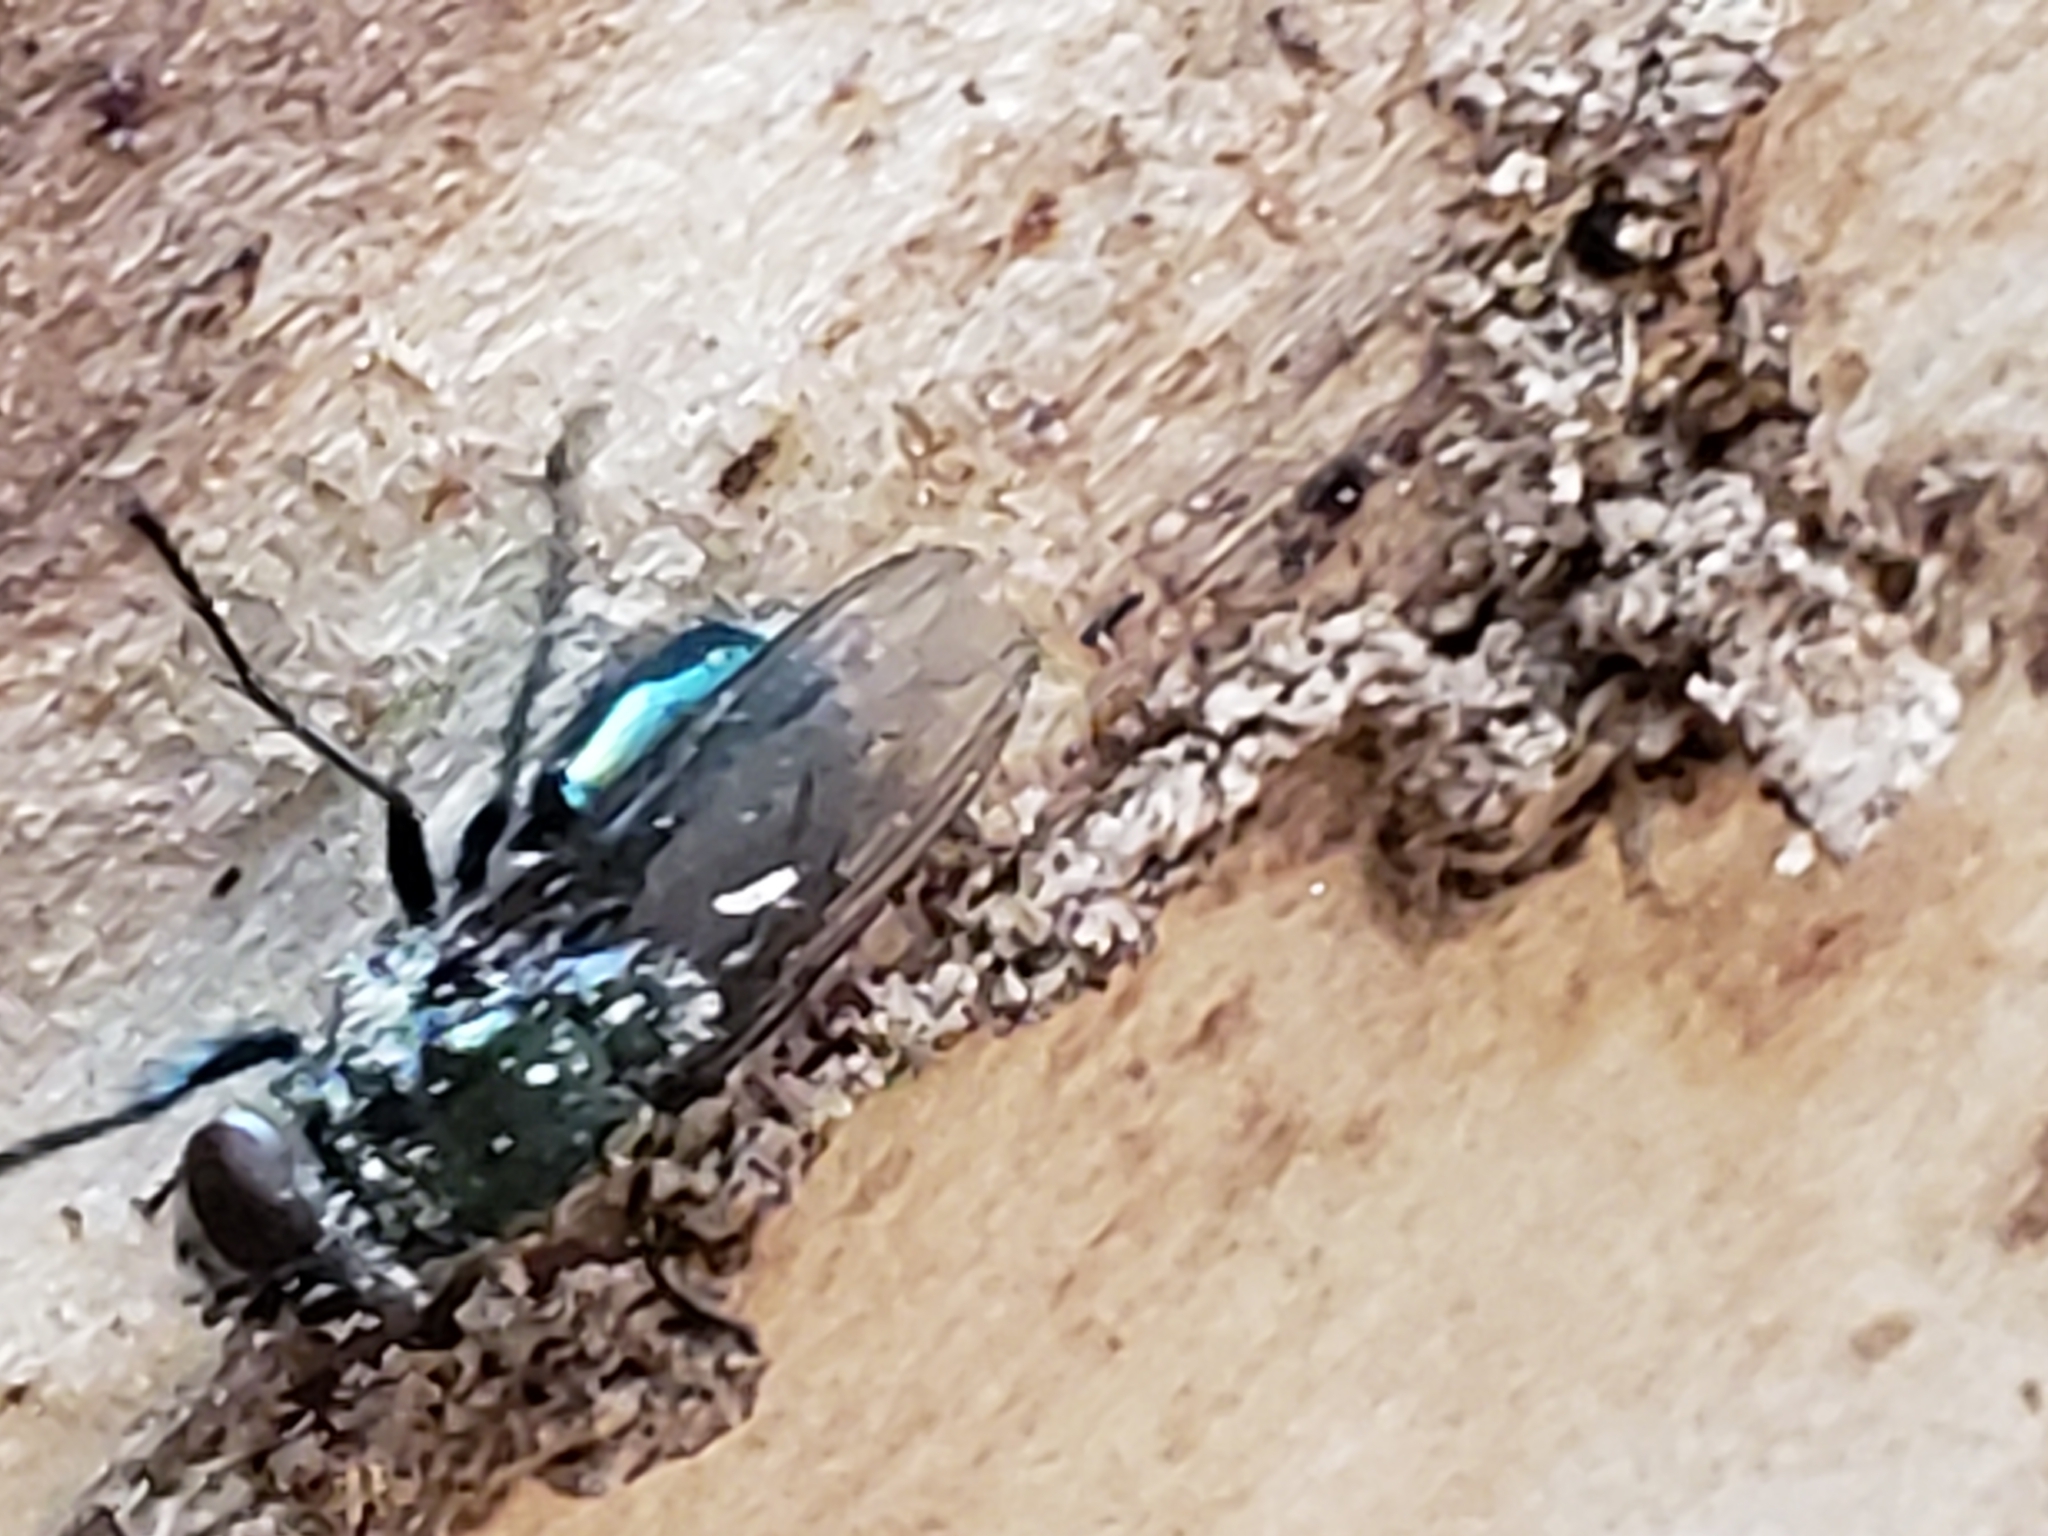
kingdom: Animalia
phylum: Arthropoda
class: Insecta
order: Diptera
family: Calliphoridae
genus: Phormia
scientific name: Phormia regina
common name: Black blow fly
